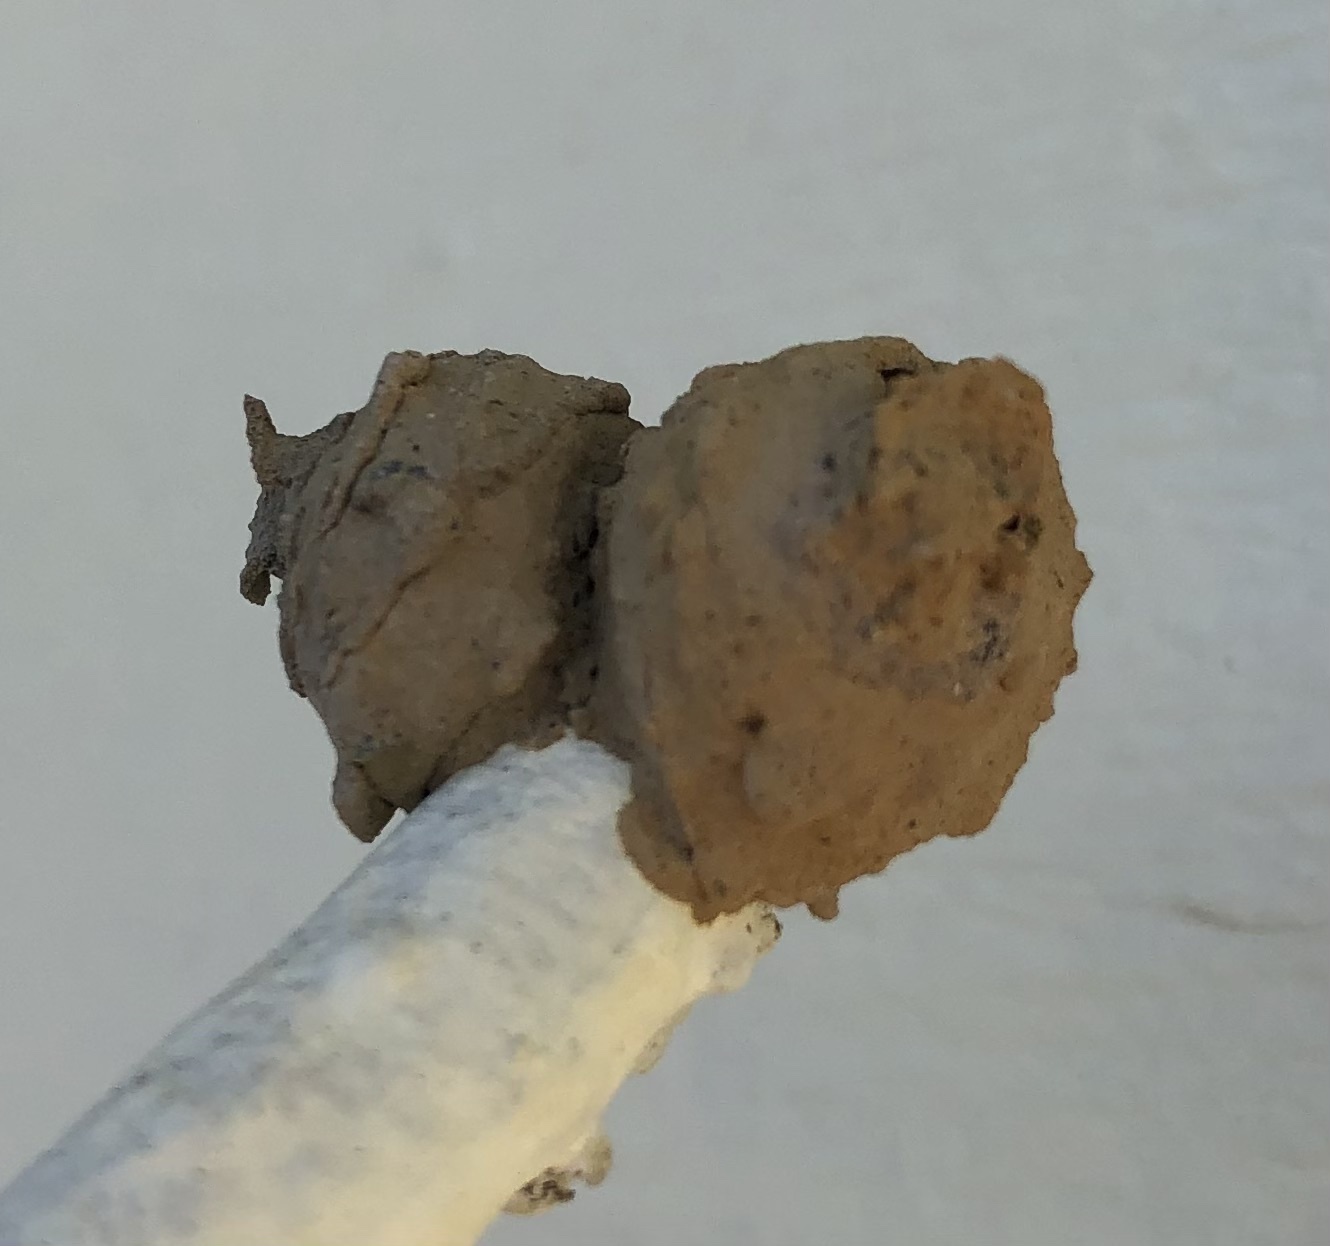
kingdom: Animalia
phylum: Arthropoda
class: Insecta
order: Hymenoptera
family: Vespidae
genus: Eumenes
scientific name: Eumenes
